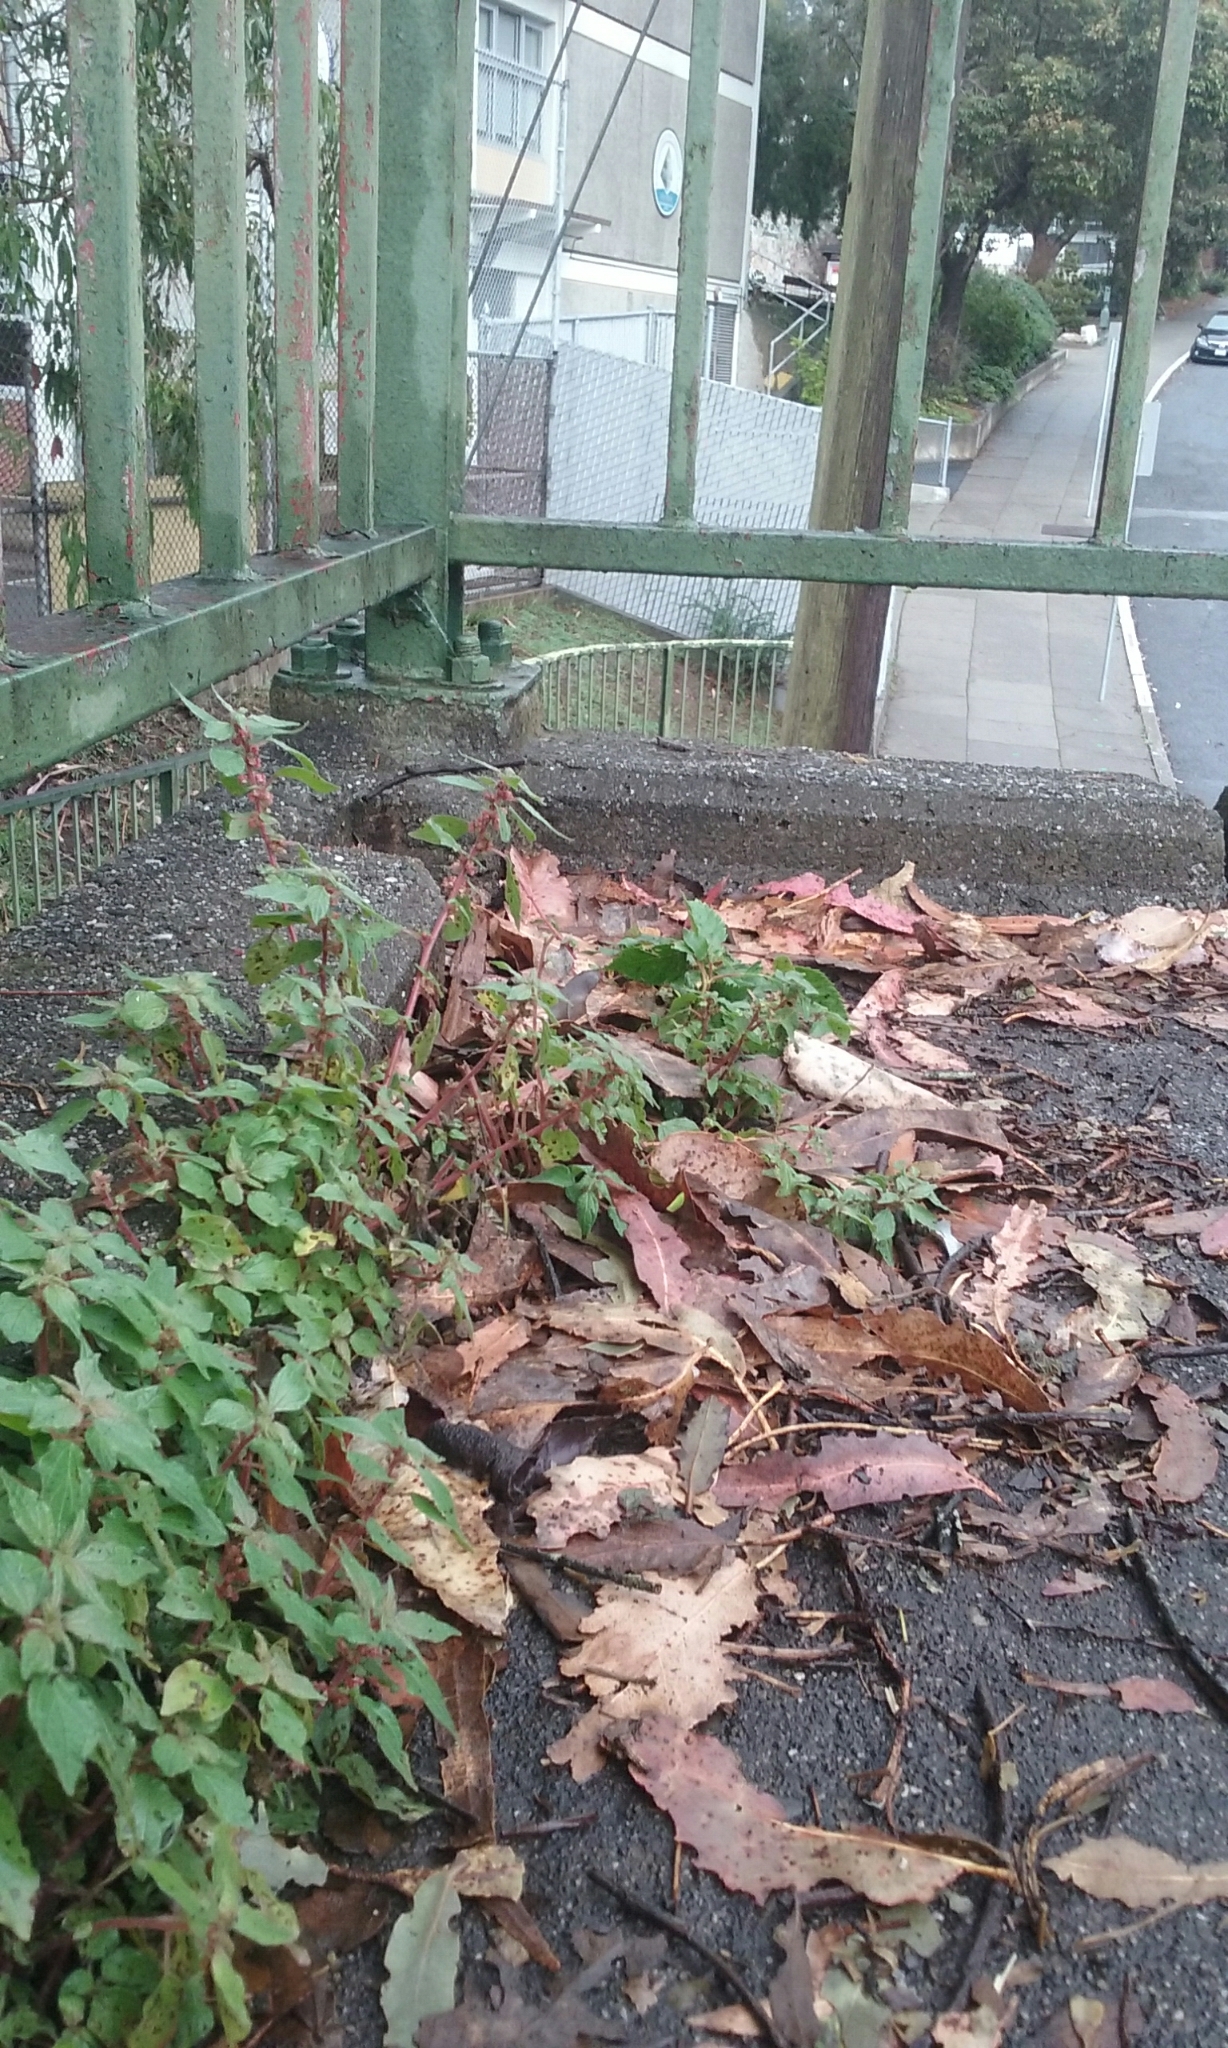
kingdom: Plantae
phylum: Tracheophyta
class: Magnoliopsida
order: Rosales
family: Urticaceae
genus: Parietaria
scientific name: Parietaria judaica
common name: Pellitory-of-the-wall
